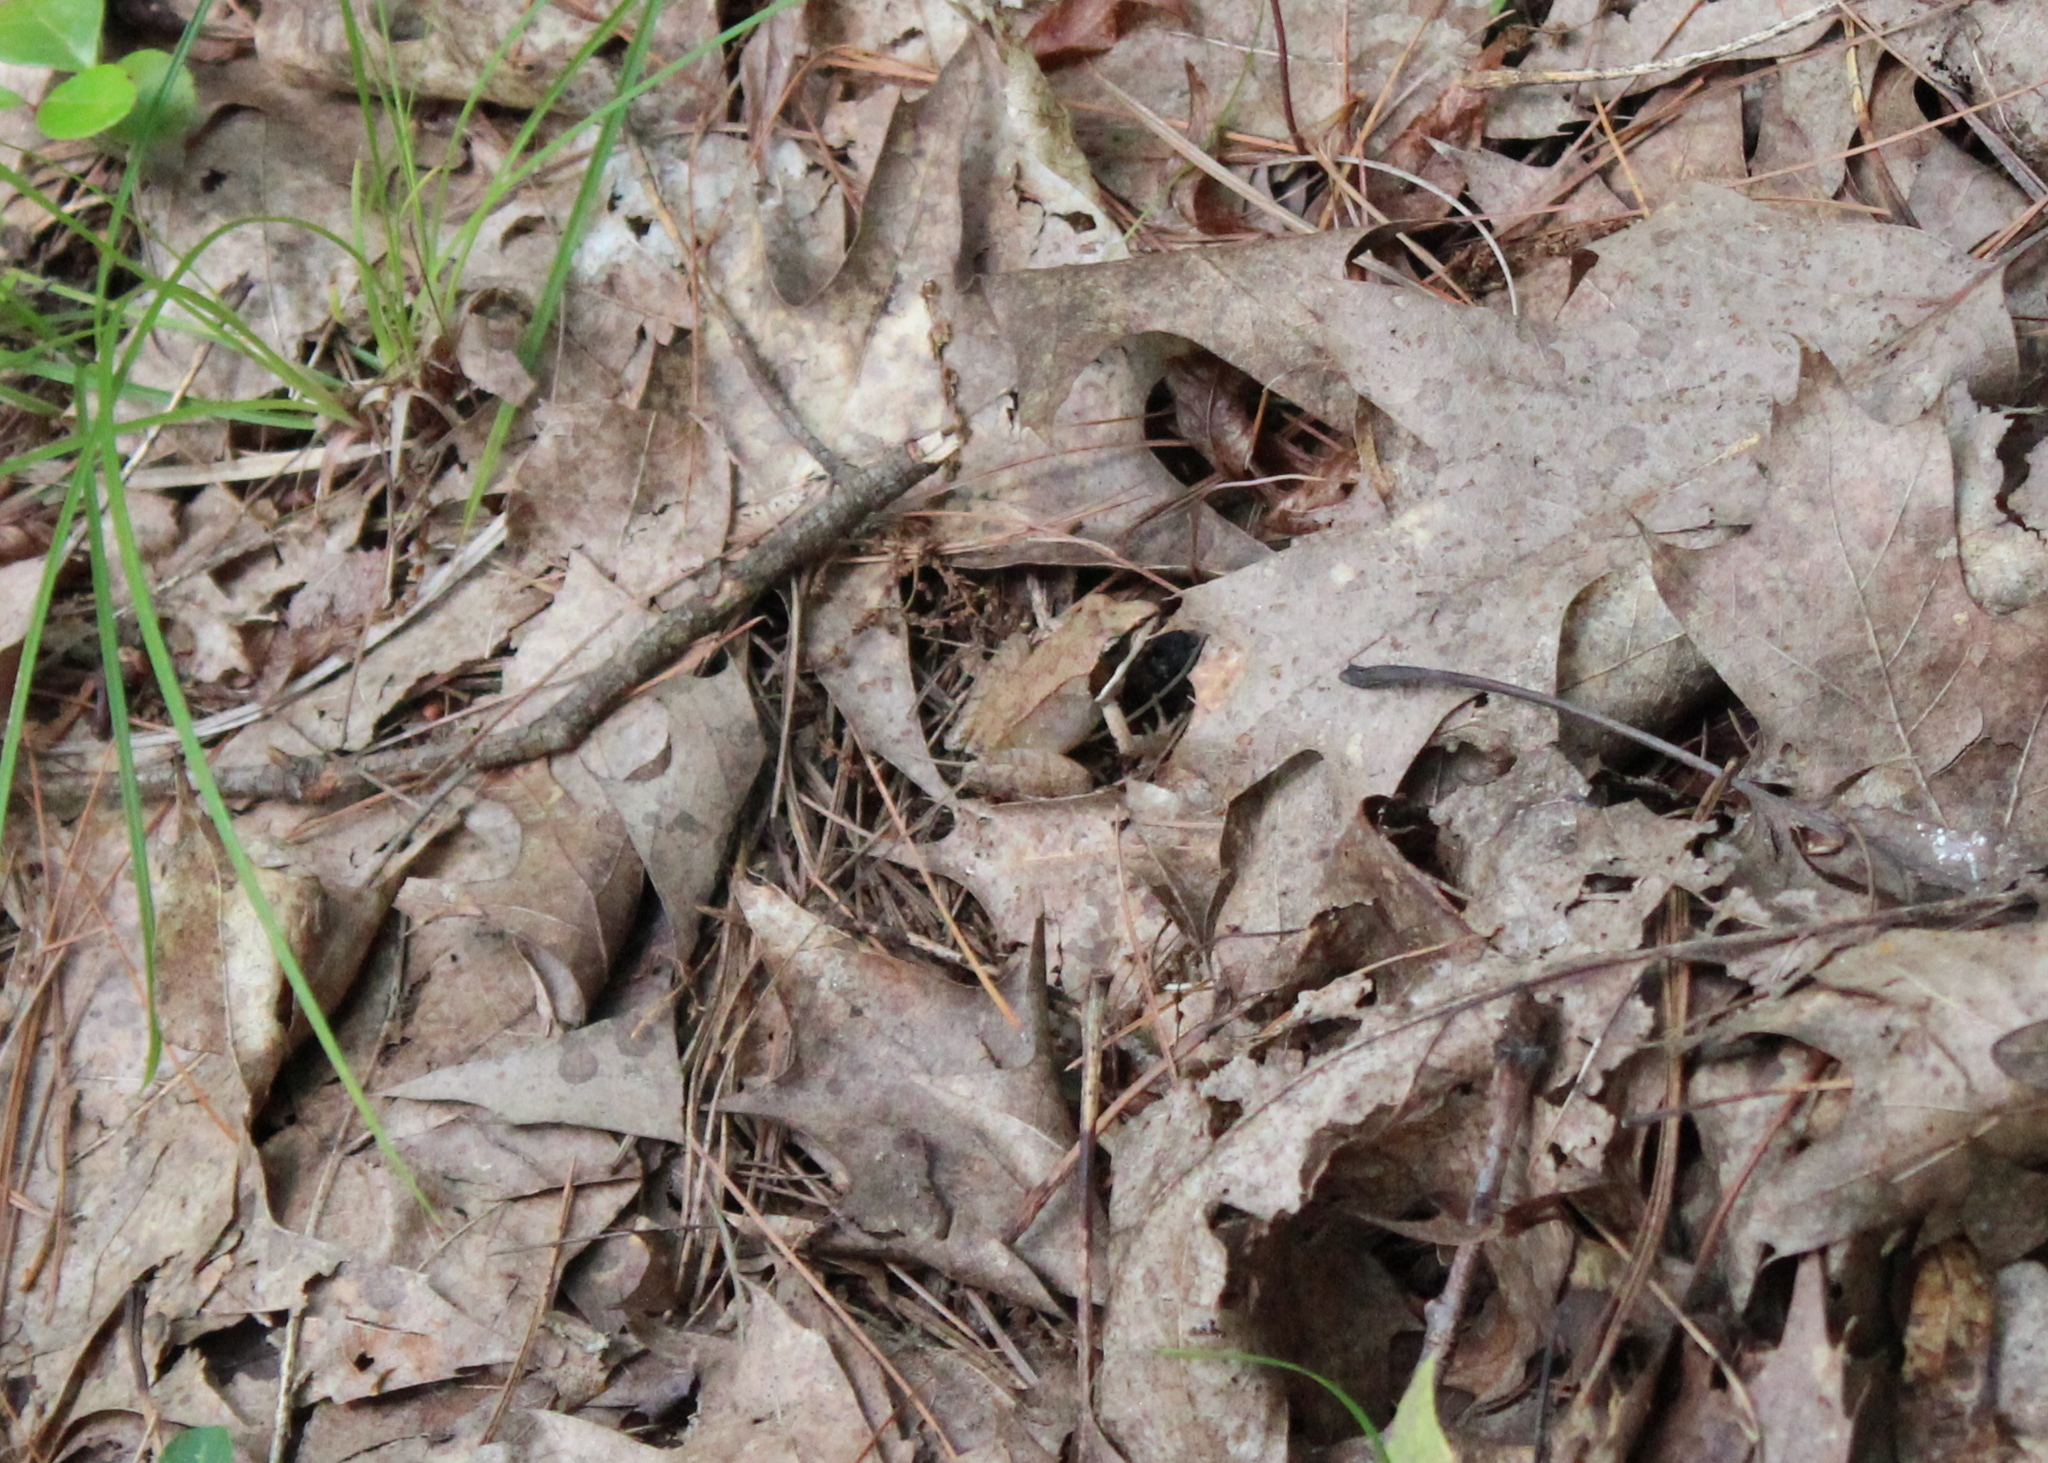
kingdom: Animalia
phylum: Chordata
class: Amphibia
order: Anura
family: Ranidae
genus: Lithobates
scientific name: Lithobates sylvaticus
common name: Wood frog
